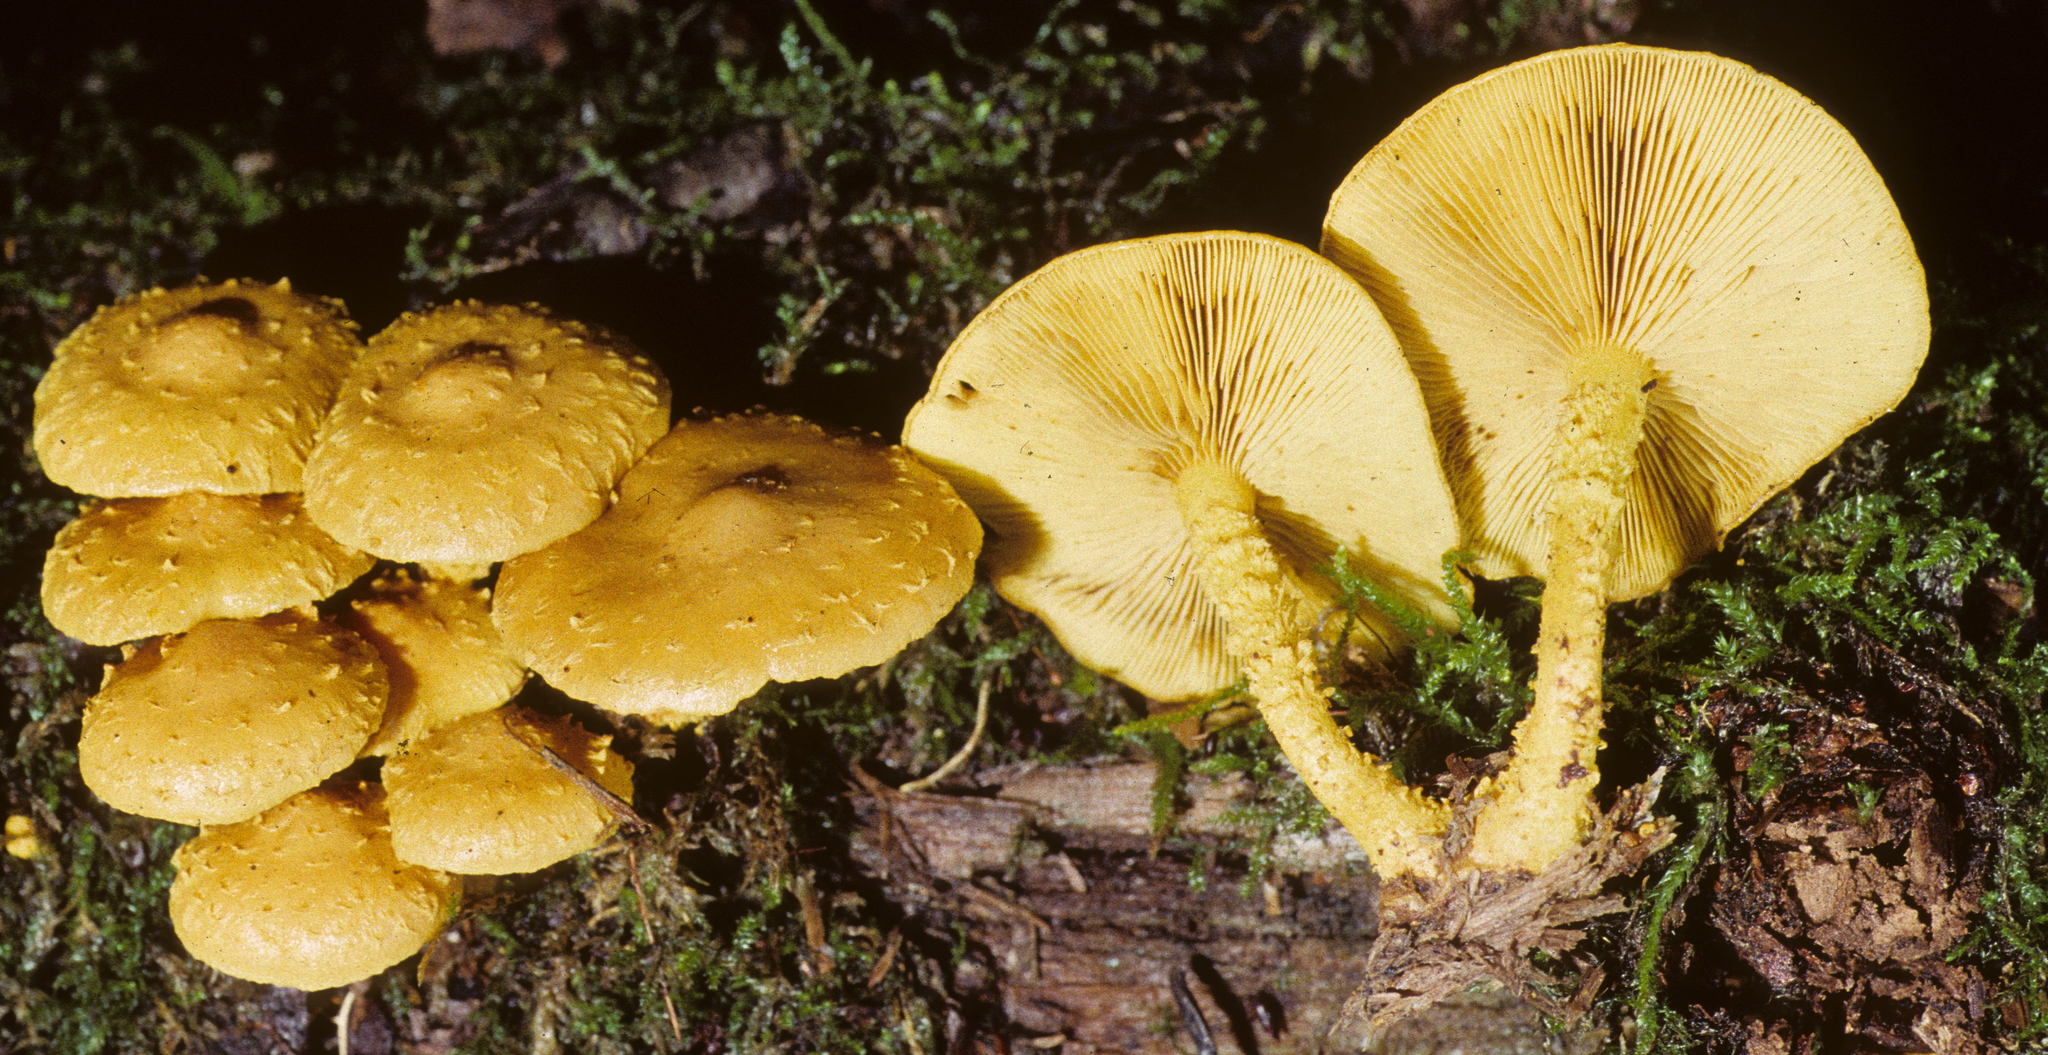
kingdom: Fungi
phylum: Basidiomycota
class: Agaricomycetes
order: Agaricales
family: Strophariaceae
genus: Pholiota
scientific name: Pholiota flammans
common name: Flaming scalycap
